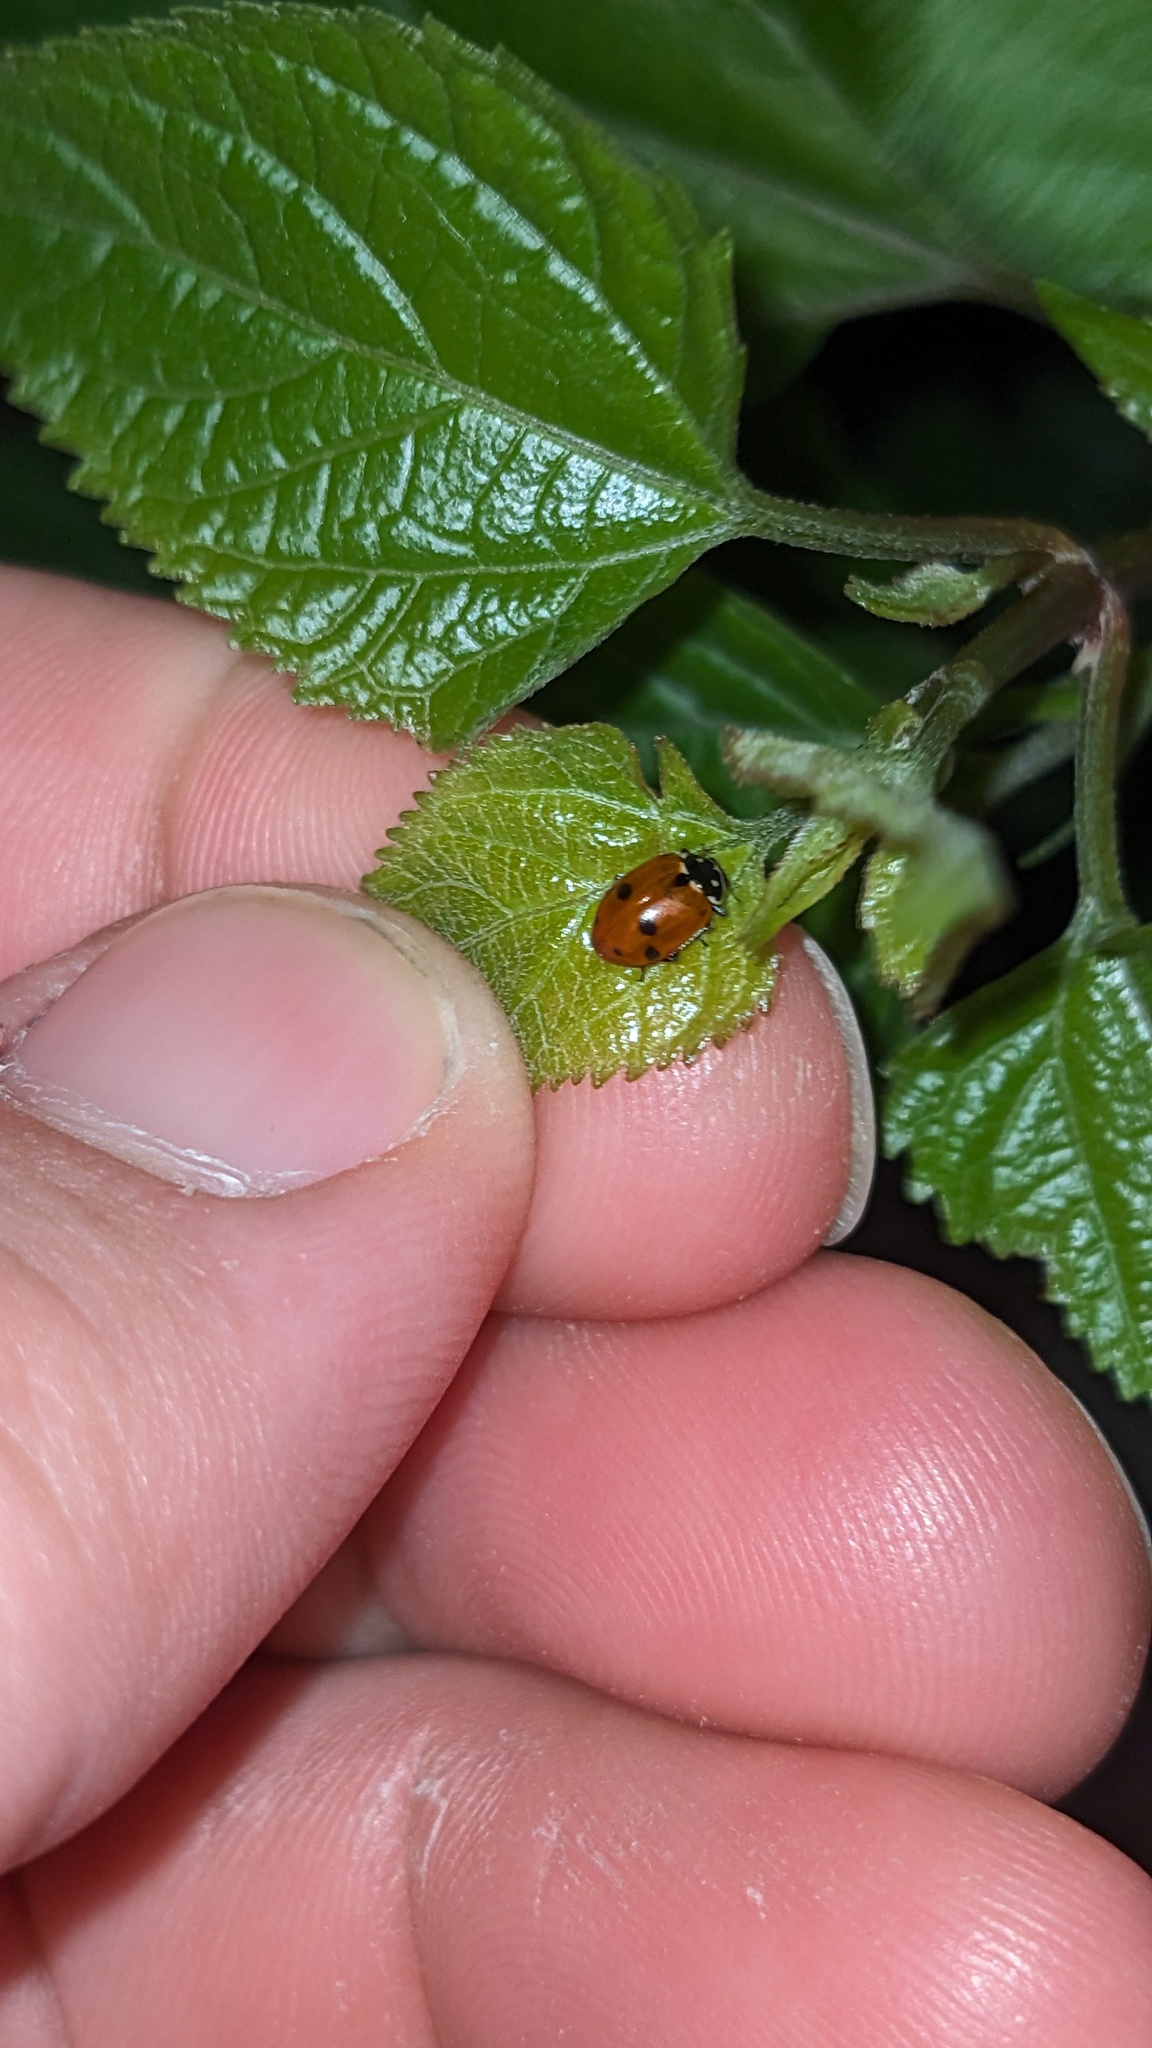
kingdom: Animalia
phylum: Arthropoda
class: Insecta
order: Coleoptera
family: Coccinellidae
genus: Hippodamia
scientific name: Hippodamia variegata
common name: Ladybird beetle
